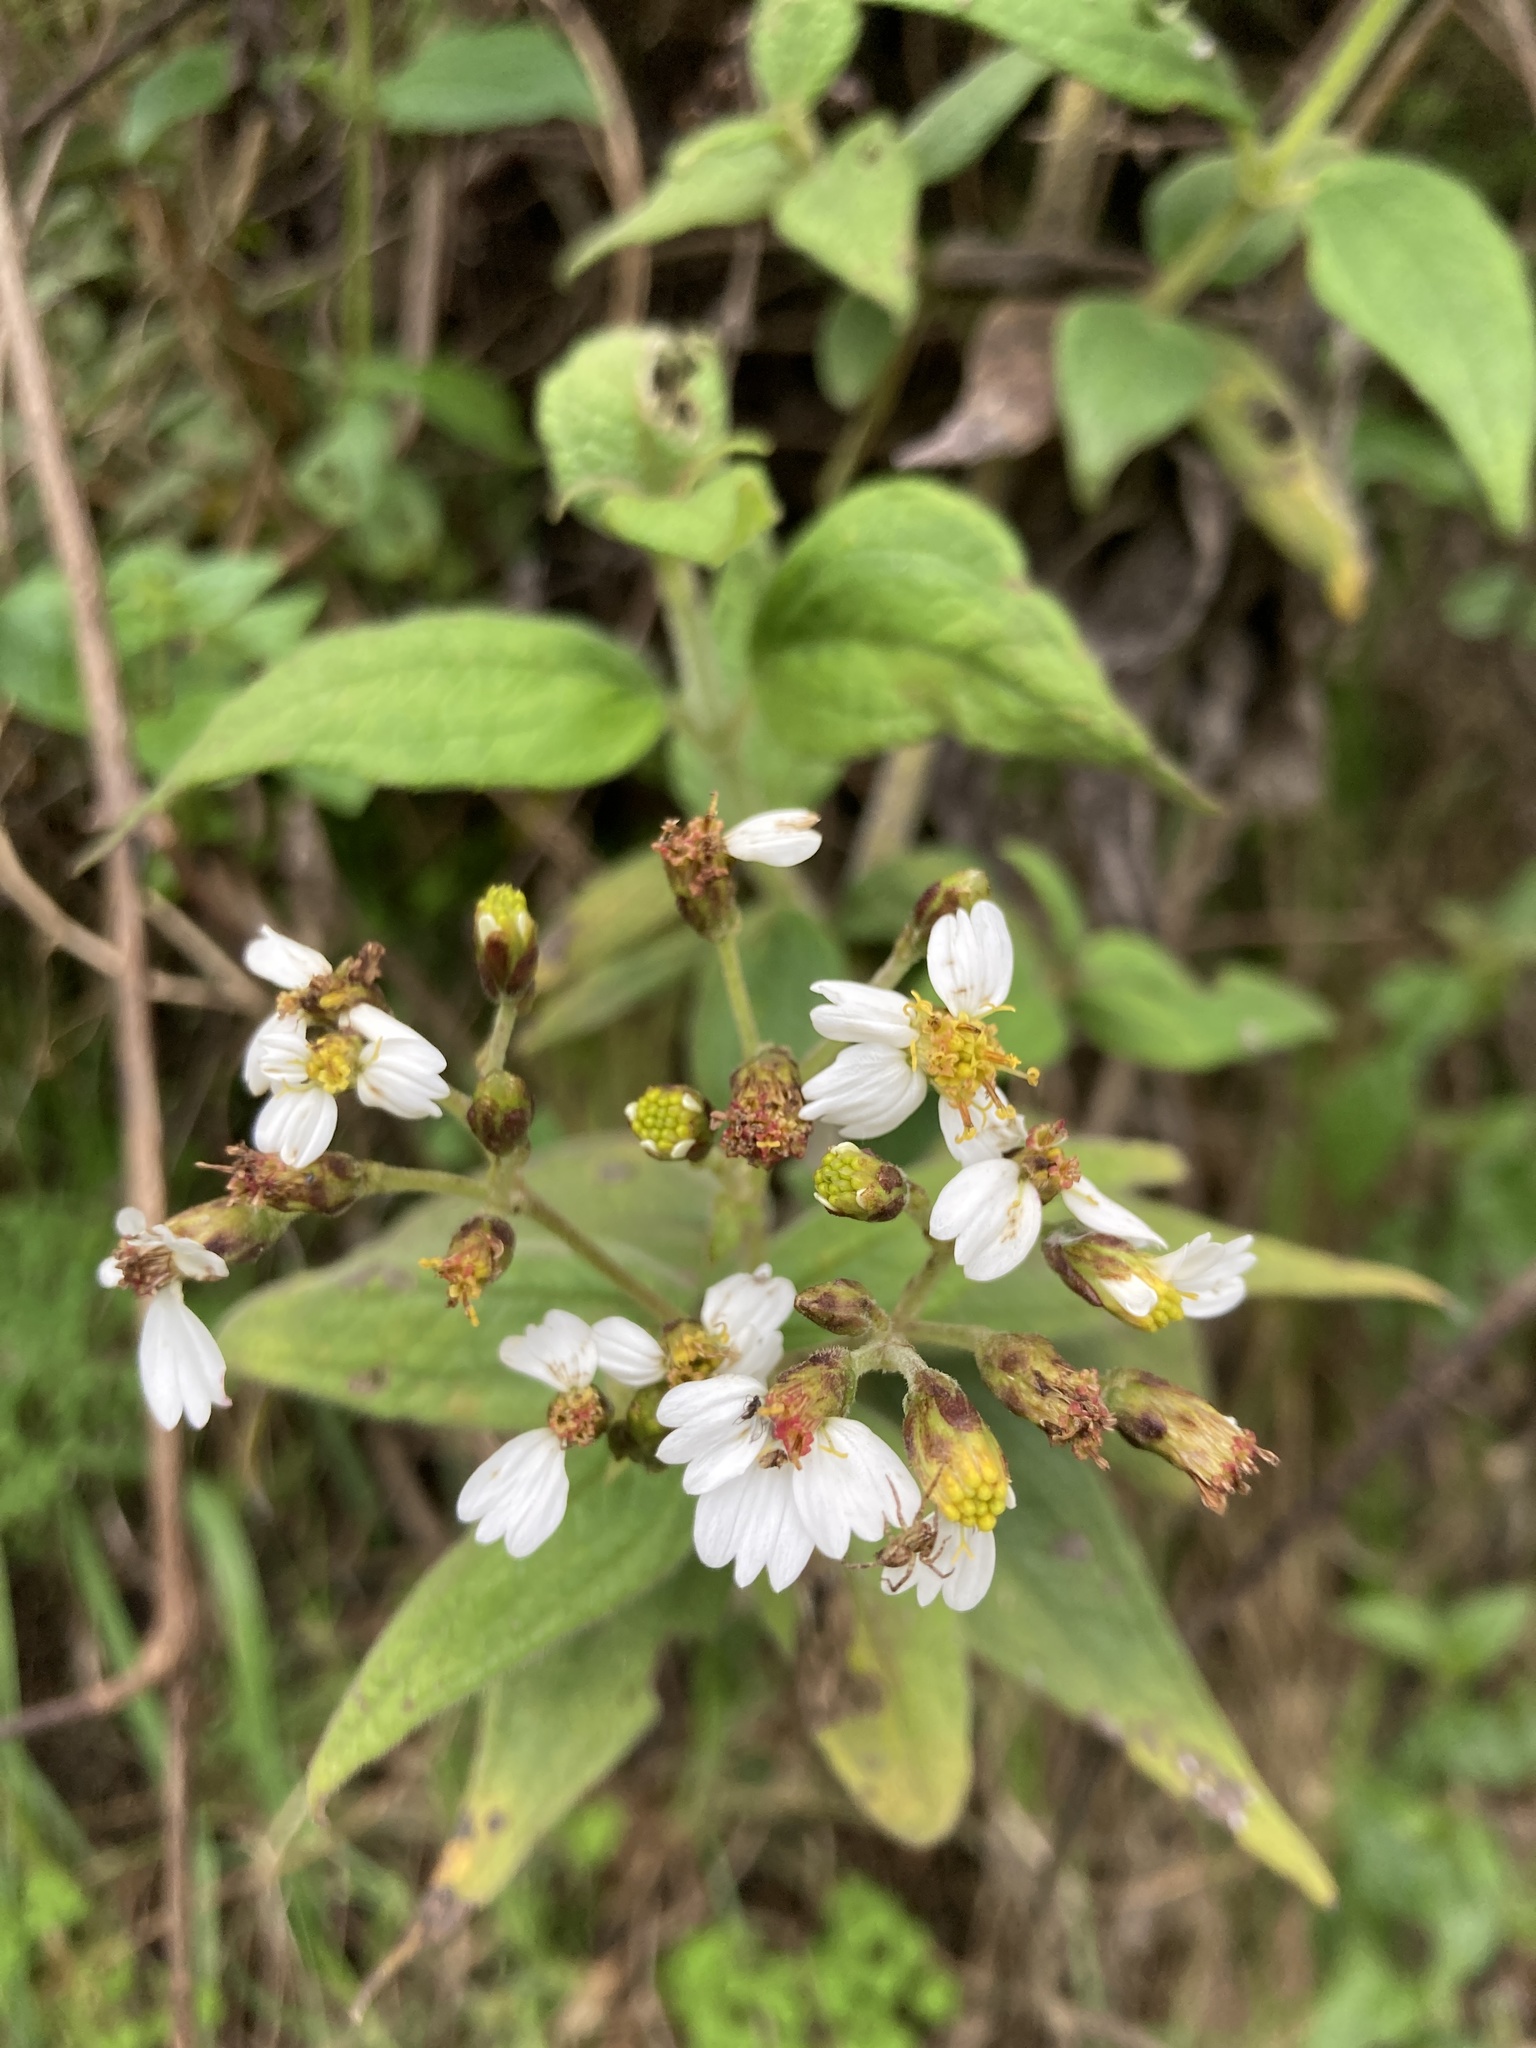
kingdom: Plantae
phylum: Tracheophyta
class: Magnoliopsida
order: Asterales
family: Asteraceae
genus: Alloispermum
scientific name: Alloispermum caracasanum
